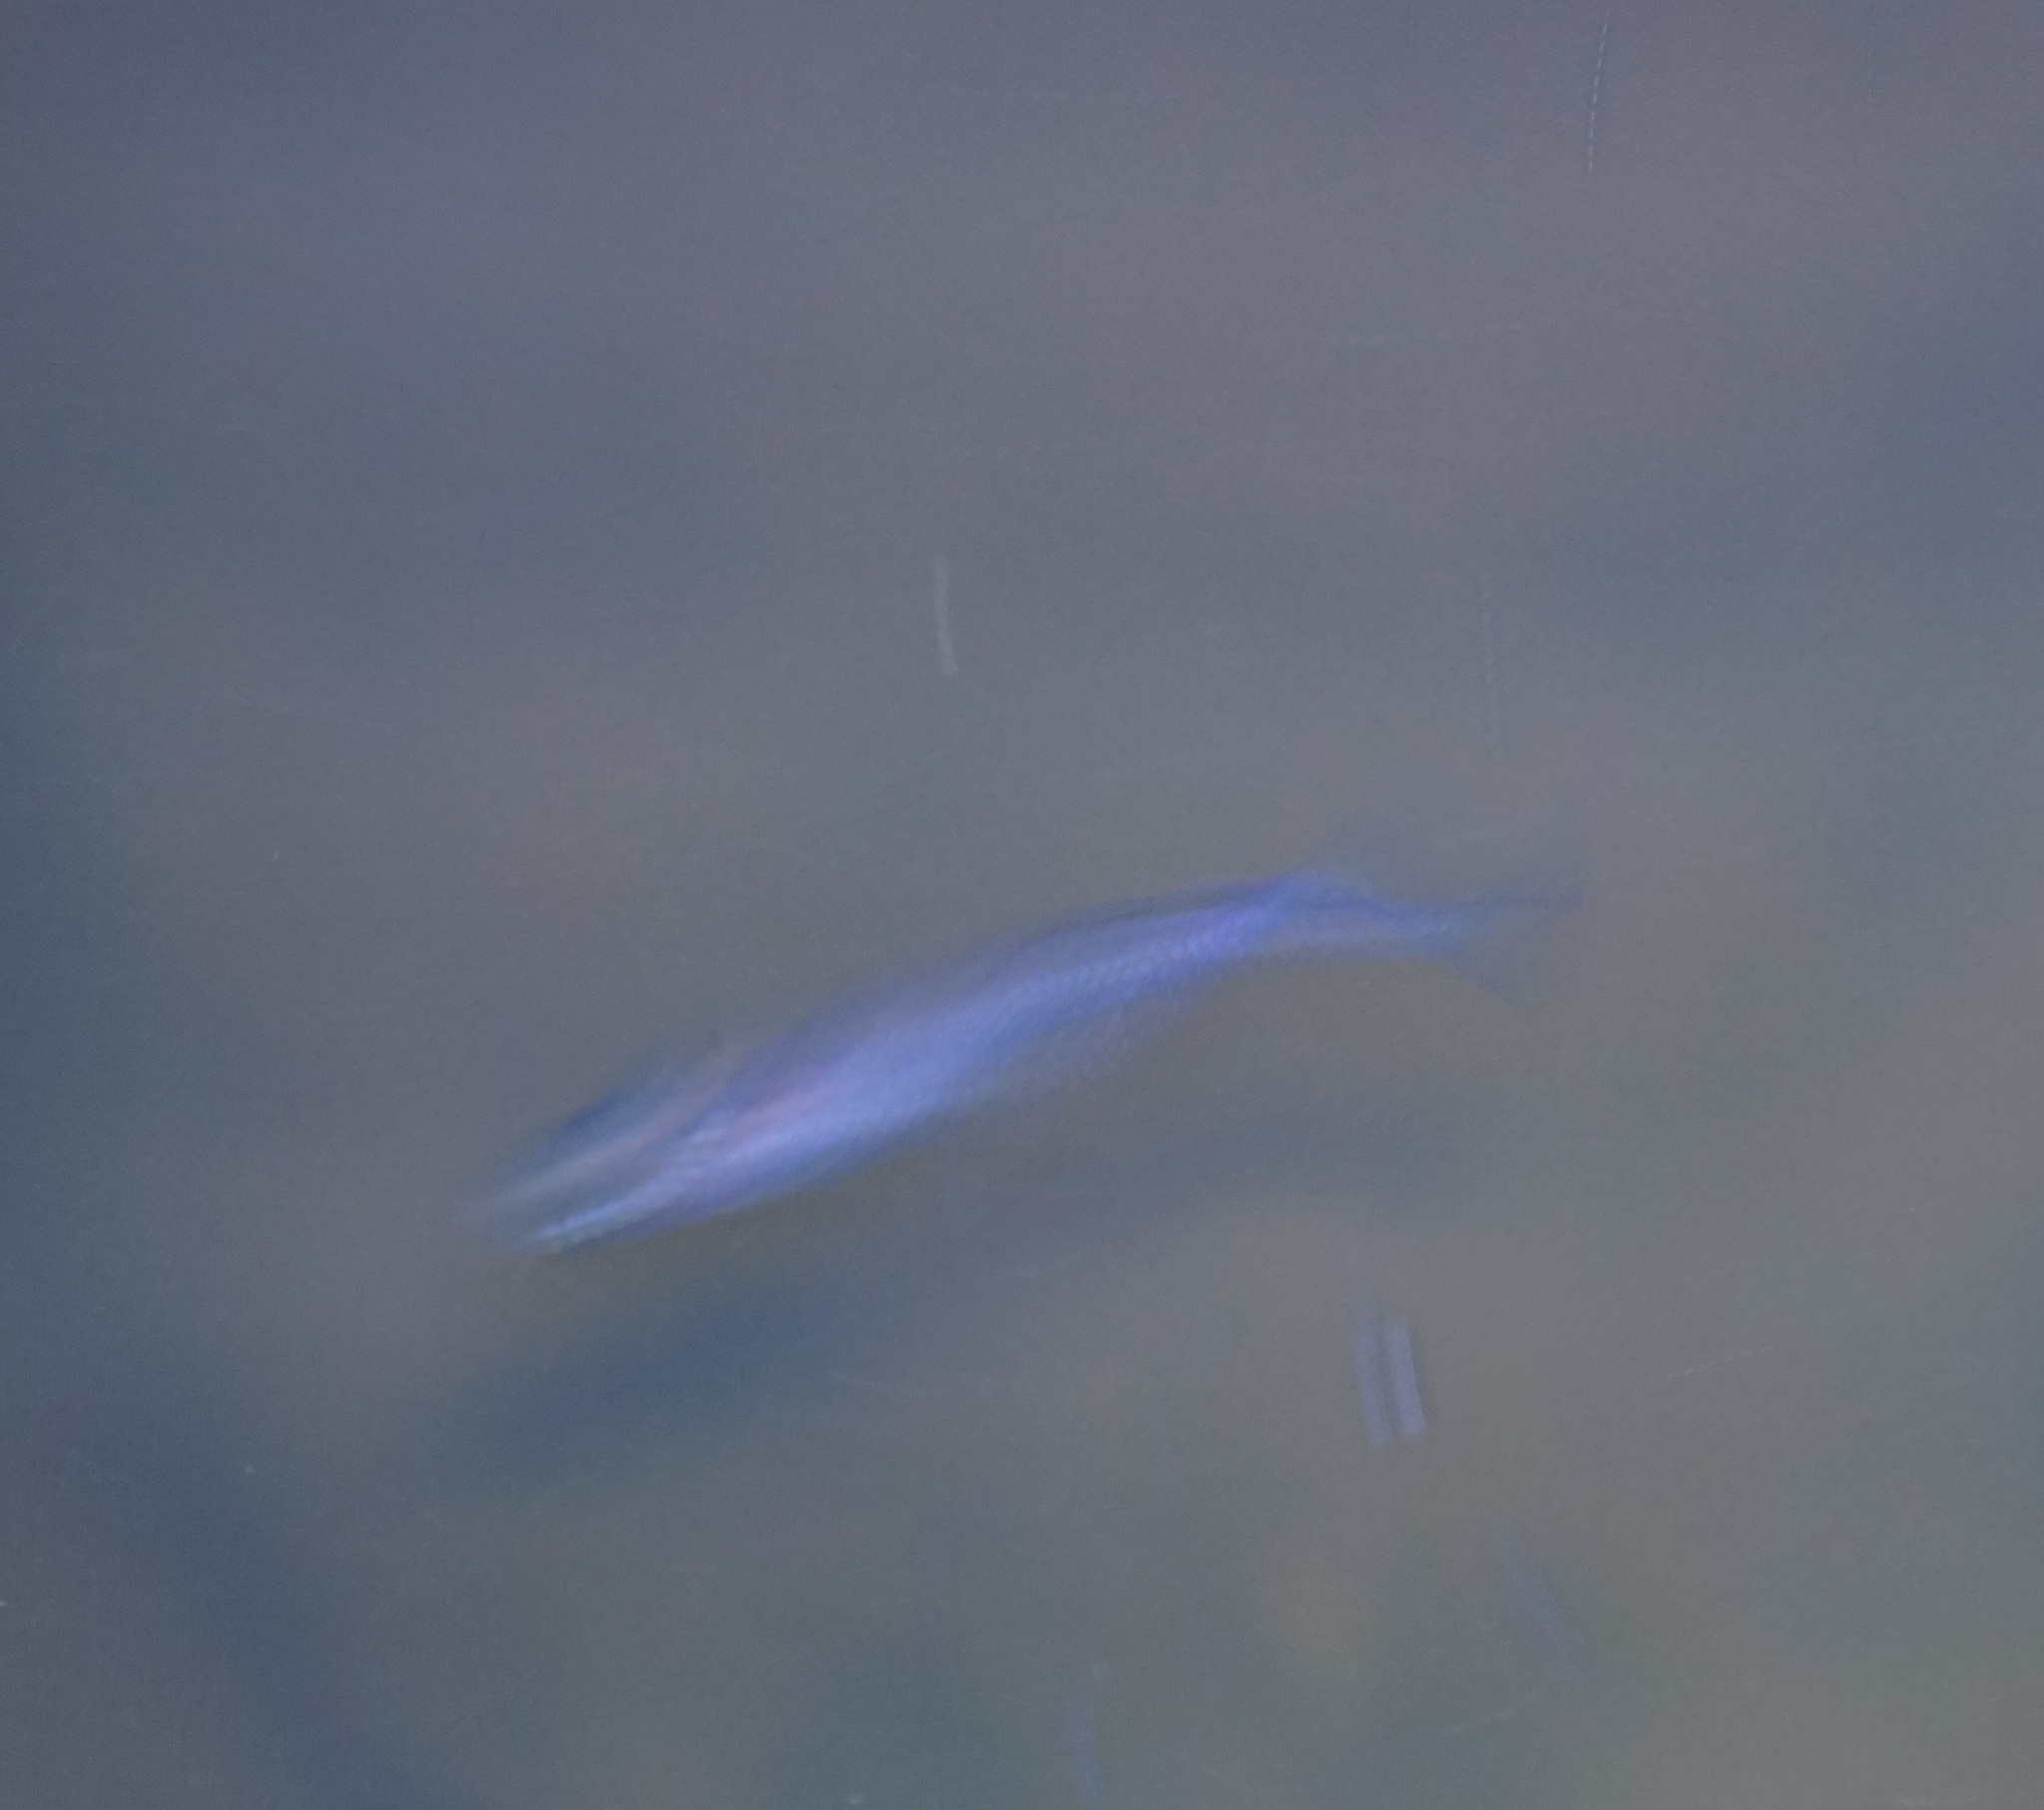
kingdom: Animalia
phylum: Chordata
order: Atheriniformes
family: Melanotaeniidae
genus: Melanotaenia
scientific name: Melanotaenia splendida
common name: Checkered rainbowfish
